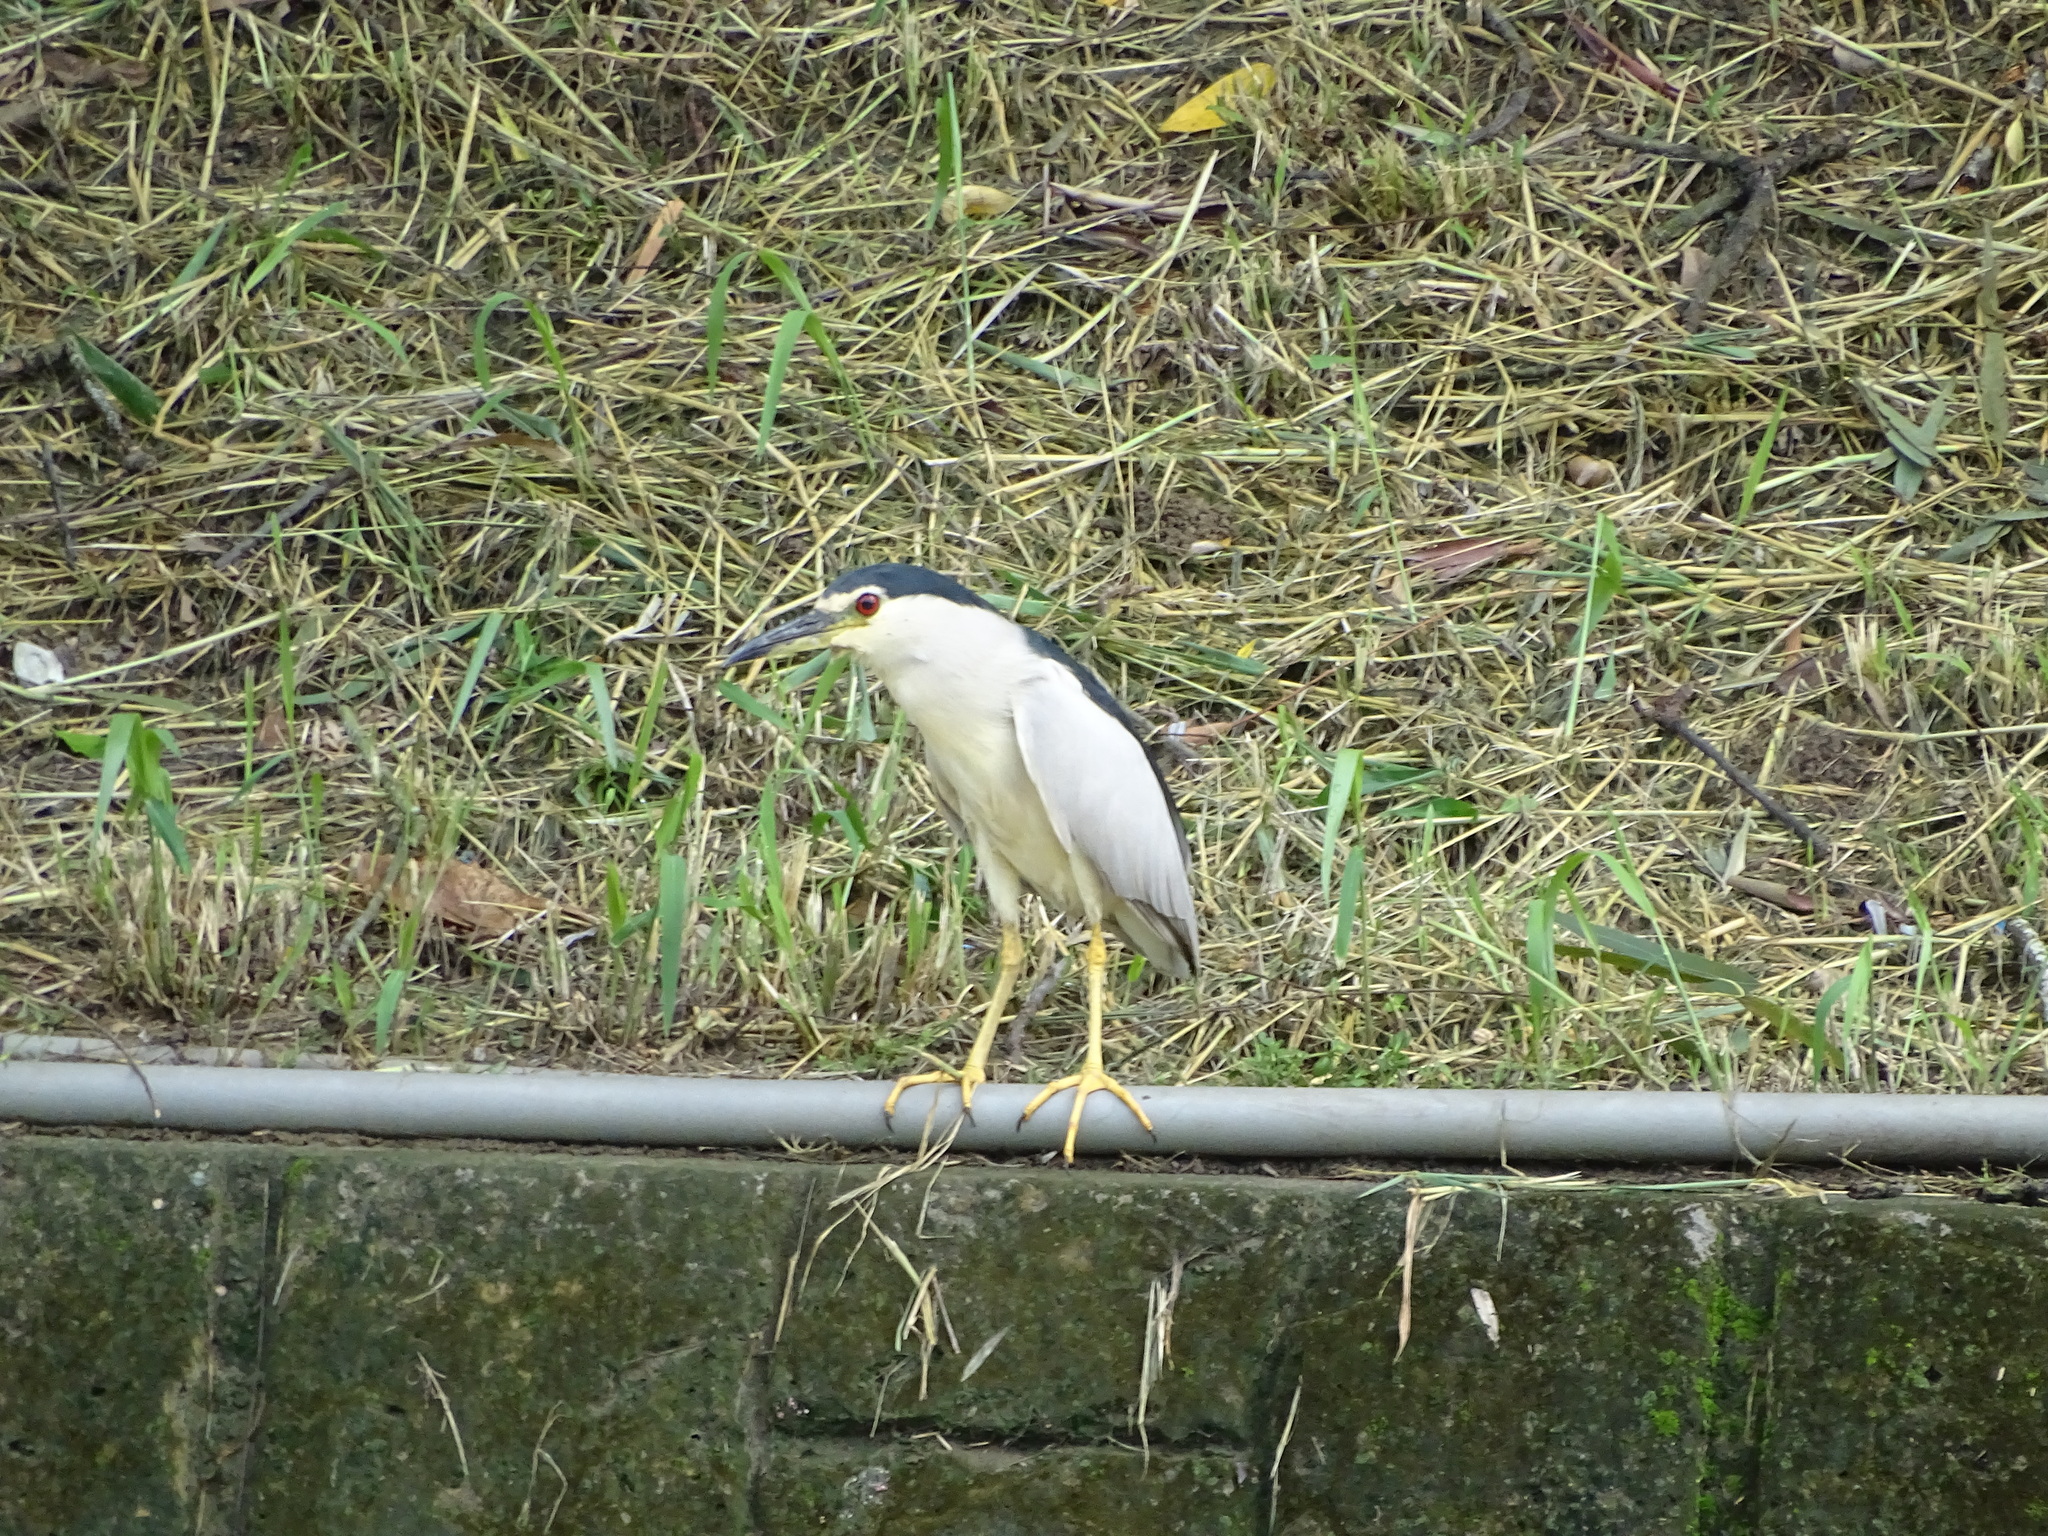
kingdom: Animalia
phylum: Chordata
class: Aves
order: Pelecaniformes
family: Ardeidae
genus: Nycticorax
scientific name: Nycticorax nycticorax
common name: Black-crowned night heron
